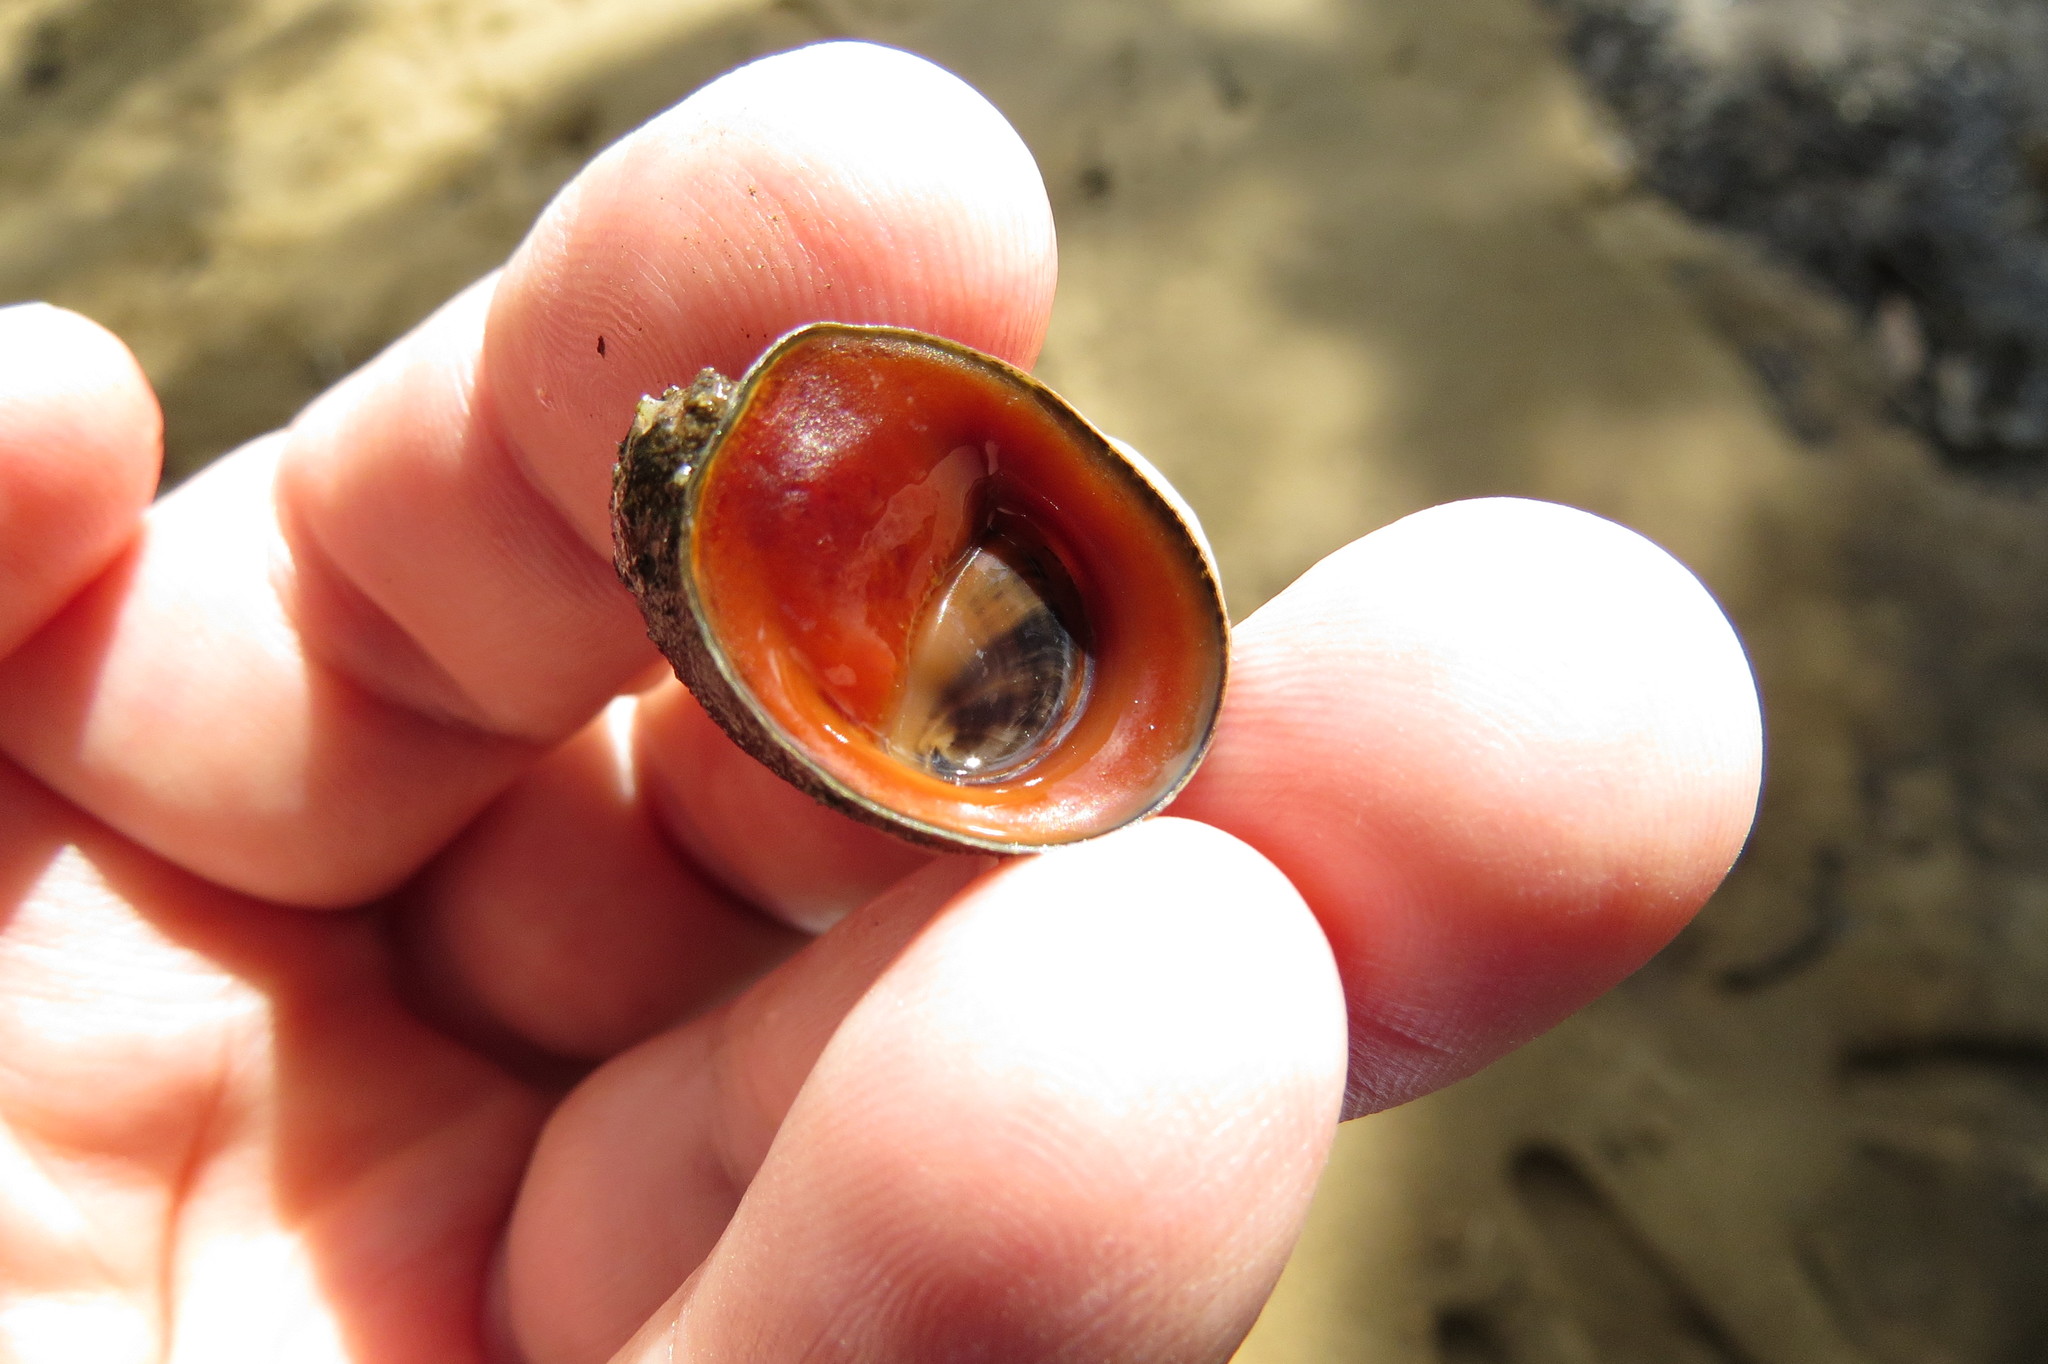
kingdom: Animalia
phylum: Mollusca
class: Gastropoda
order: Cycloneritida
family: Neritidae
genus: Neripteron
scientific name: Neripteron violaceum
